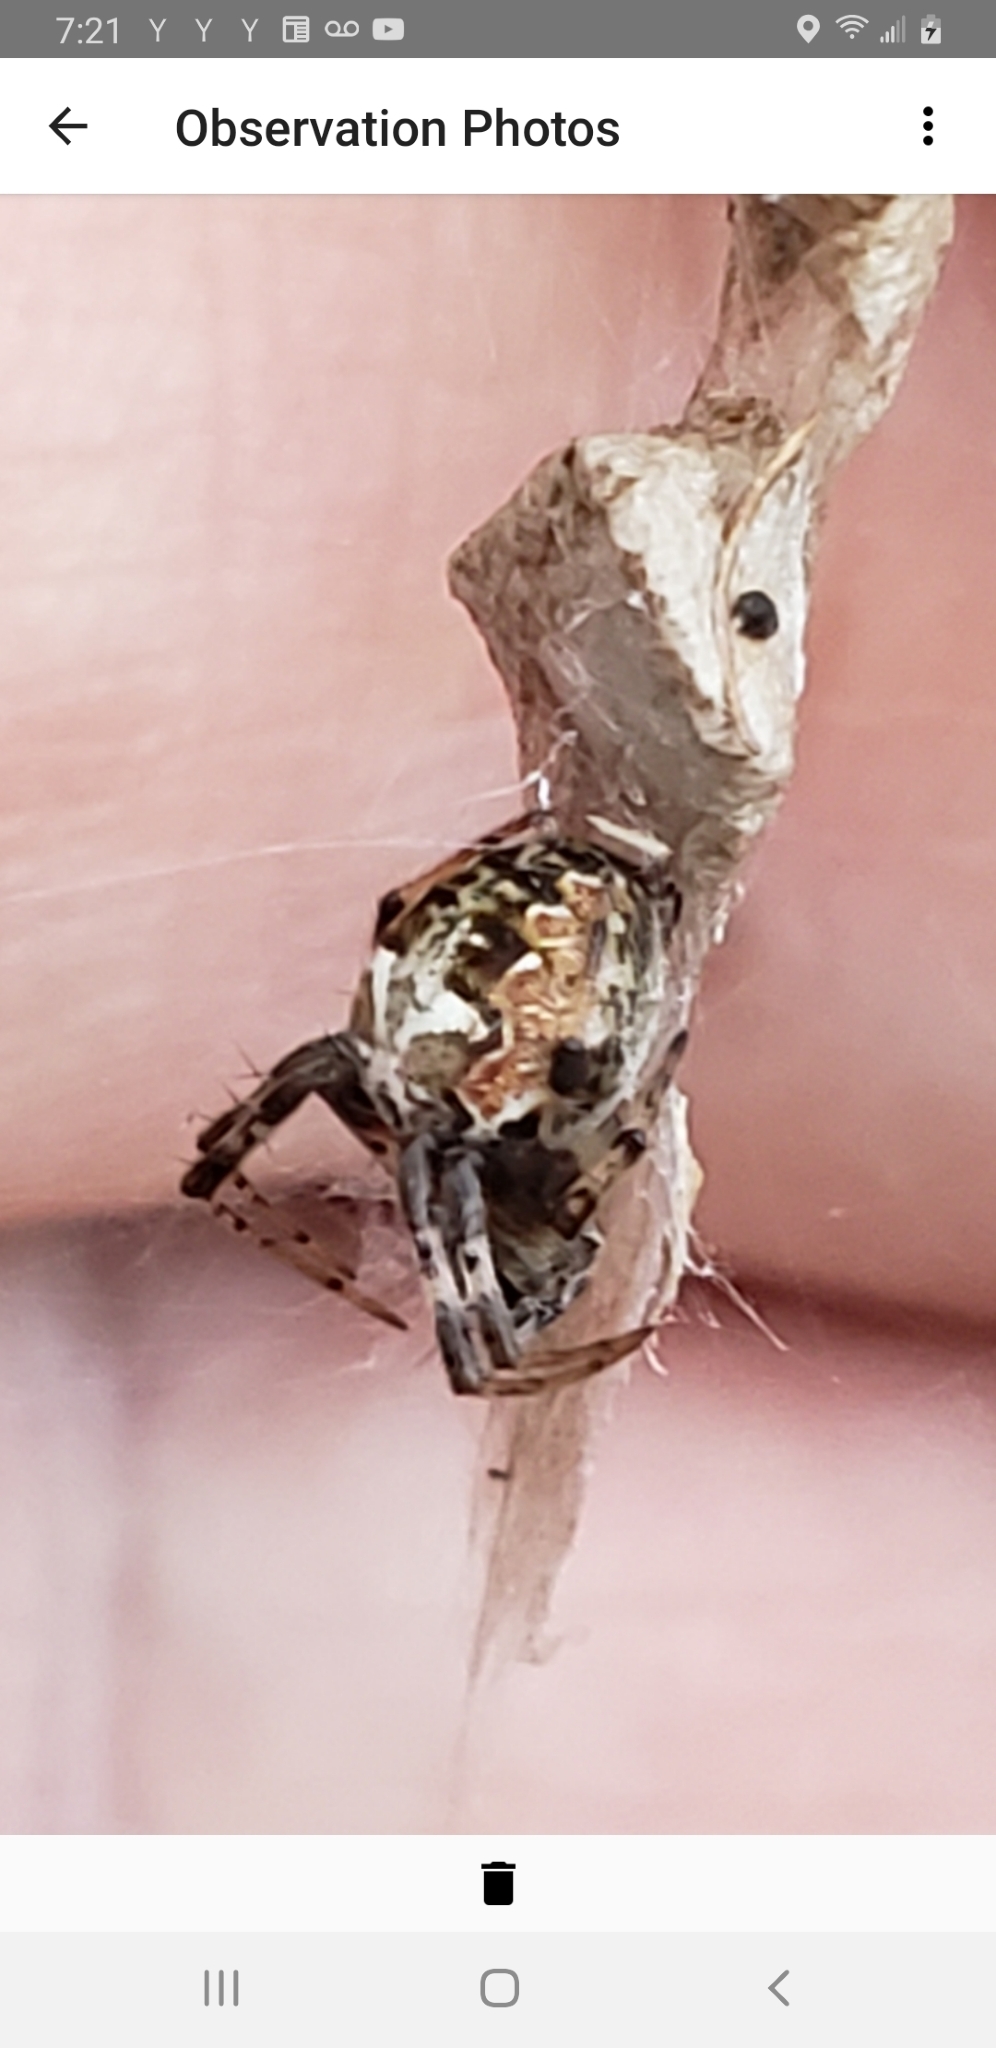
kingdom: Animalia
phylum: Arthropoda
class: Arachnida
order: Araneae
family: Araneidae
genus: Metepeira
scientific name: Metepeira labyrinthea
